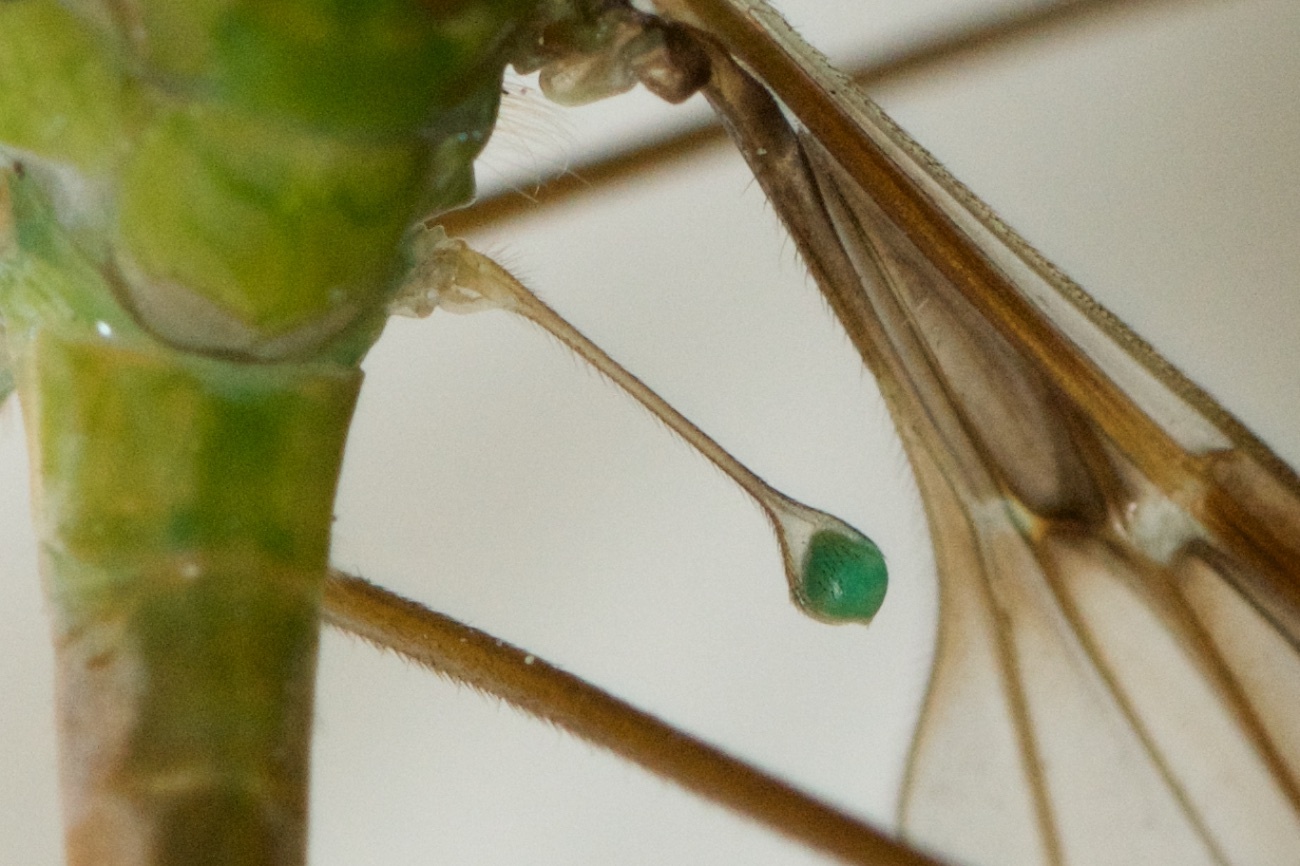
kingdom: Animalia
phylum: Arthropoda
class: Insecta
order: Diptera
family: Tipulidae
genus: Leptotarsus
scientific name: Leptotarsus albistigma
